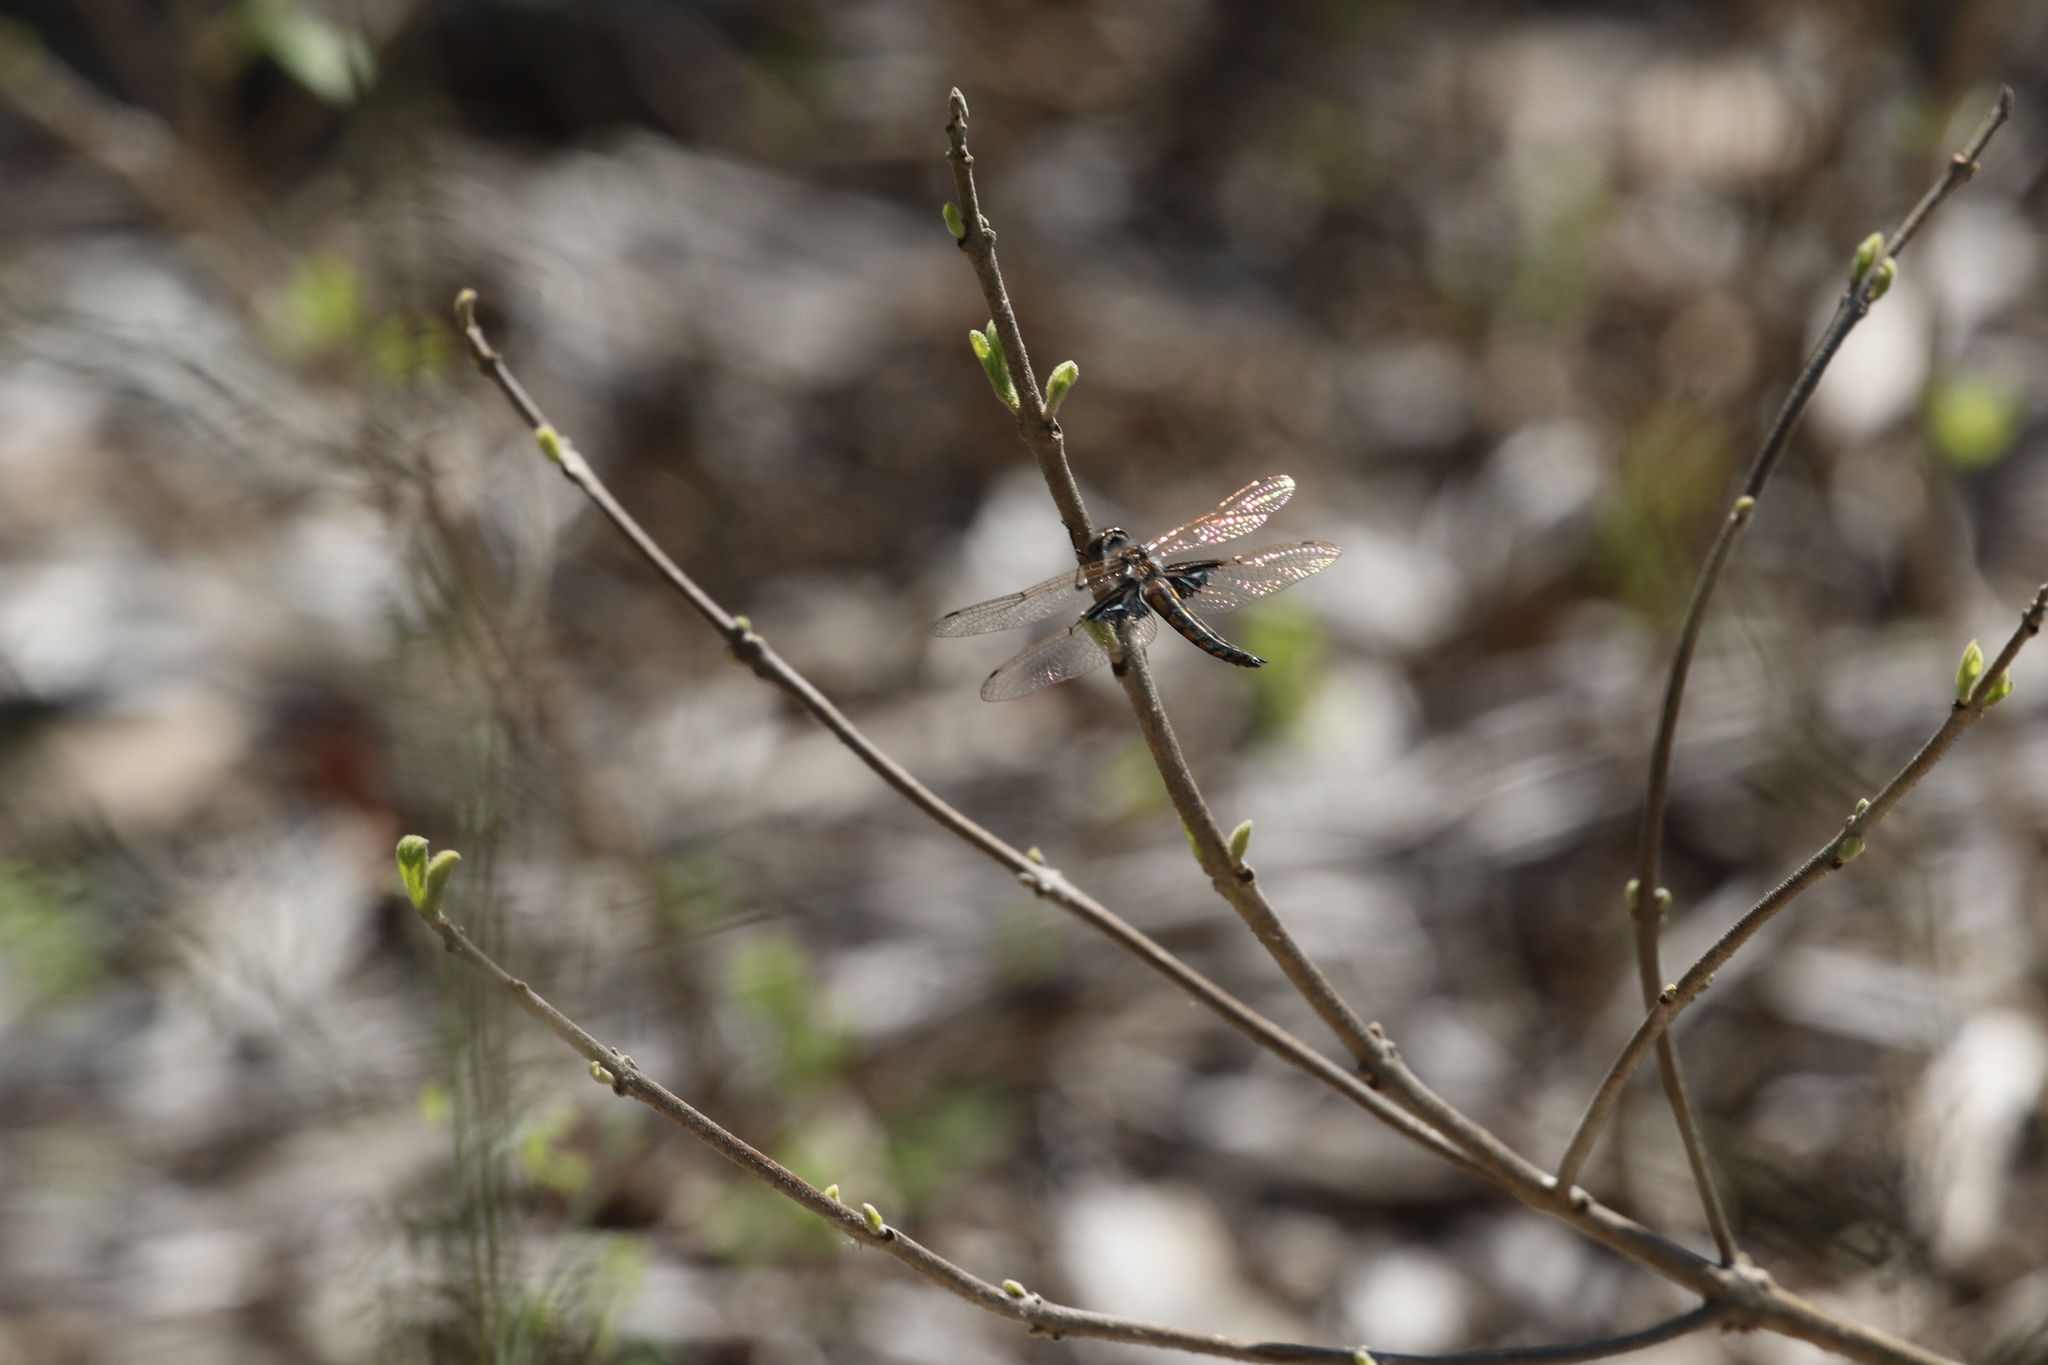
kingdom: Animalia
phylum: Arthropoda
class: Insecta
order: Odonata
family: Corduliidae
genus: Epitheca
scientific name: Epitheca semiaquea
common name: Mantled baskettail
